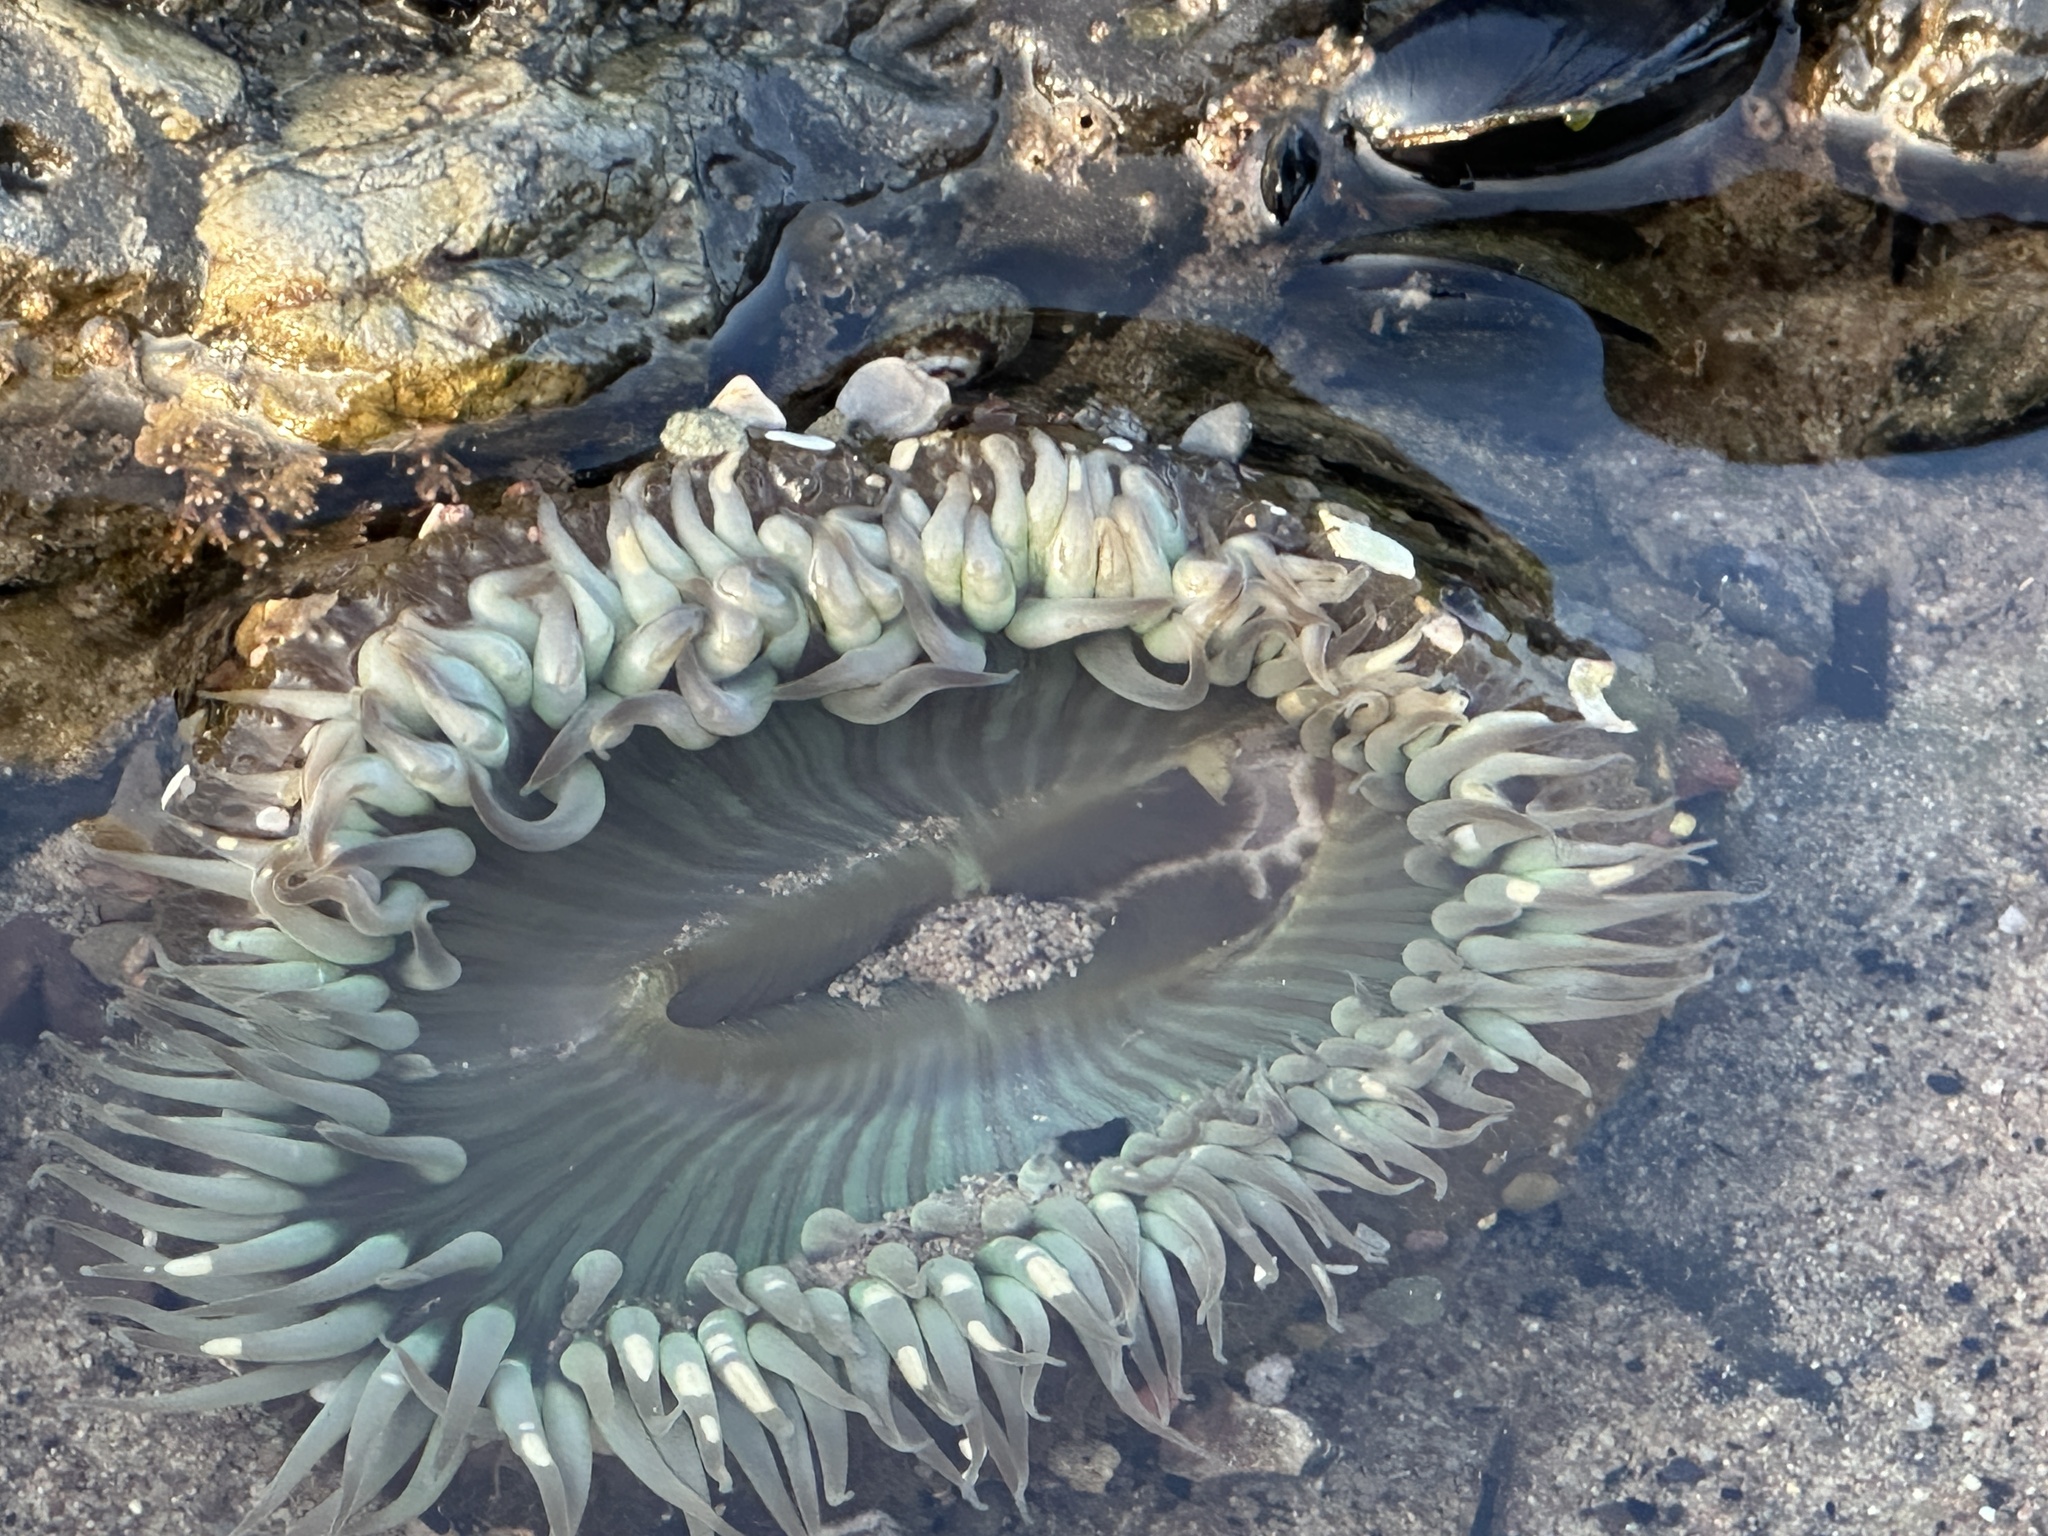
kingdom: Animalia
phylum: Cnidaria
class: Anthozoa
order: Actiniaria
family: Actiniidae
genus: Anthopleura
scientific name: Anthopleura sola
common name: Sun anemone
